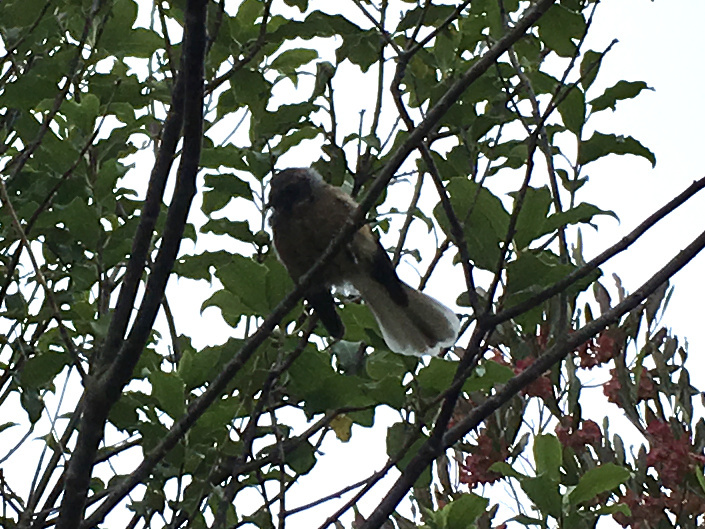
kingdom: Animalia
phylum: Chordata
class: Aves
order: Passeriformes
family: Rhipiduridae
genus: Rhipidura
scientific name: Rhipidura fuliginosa
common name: New zealand fantail
